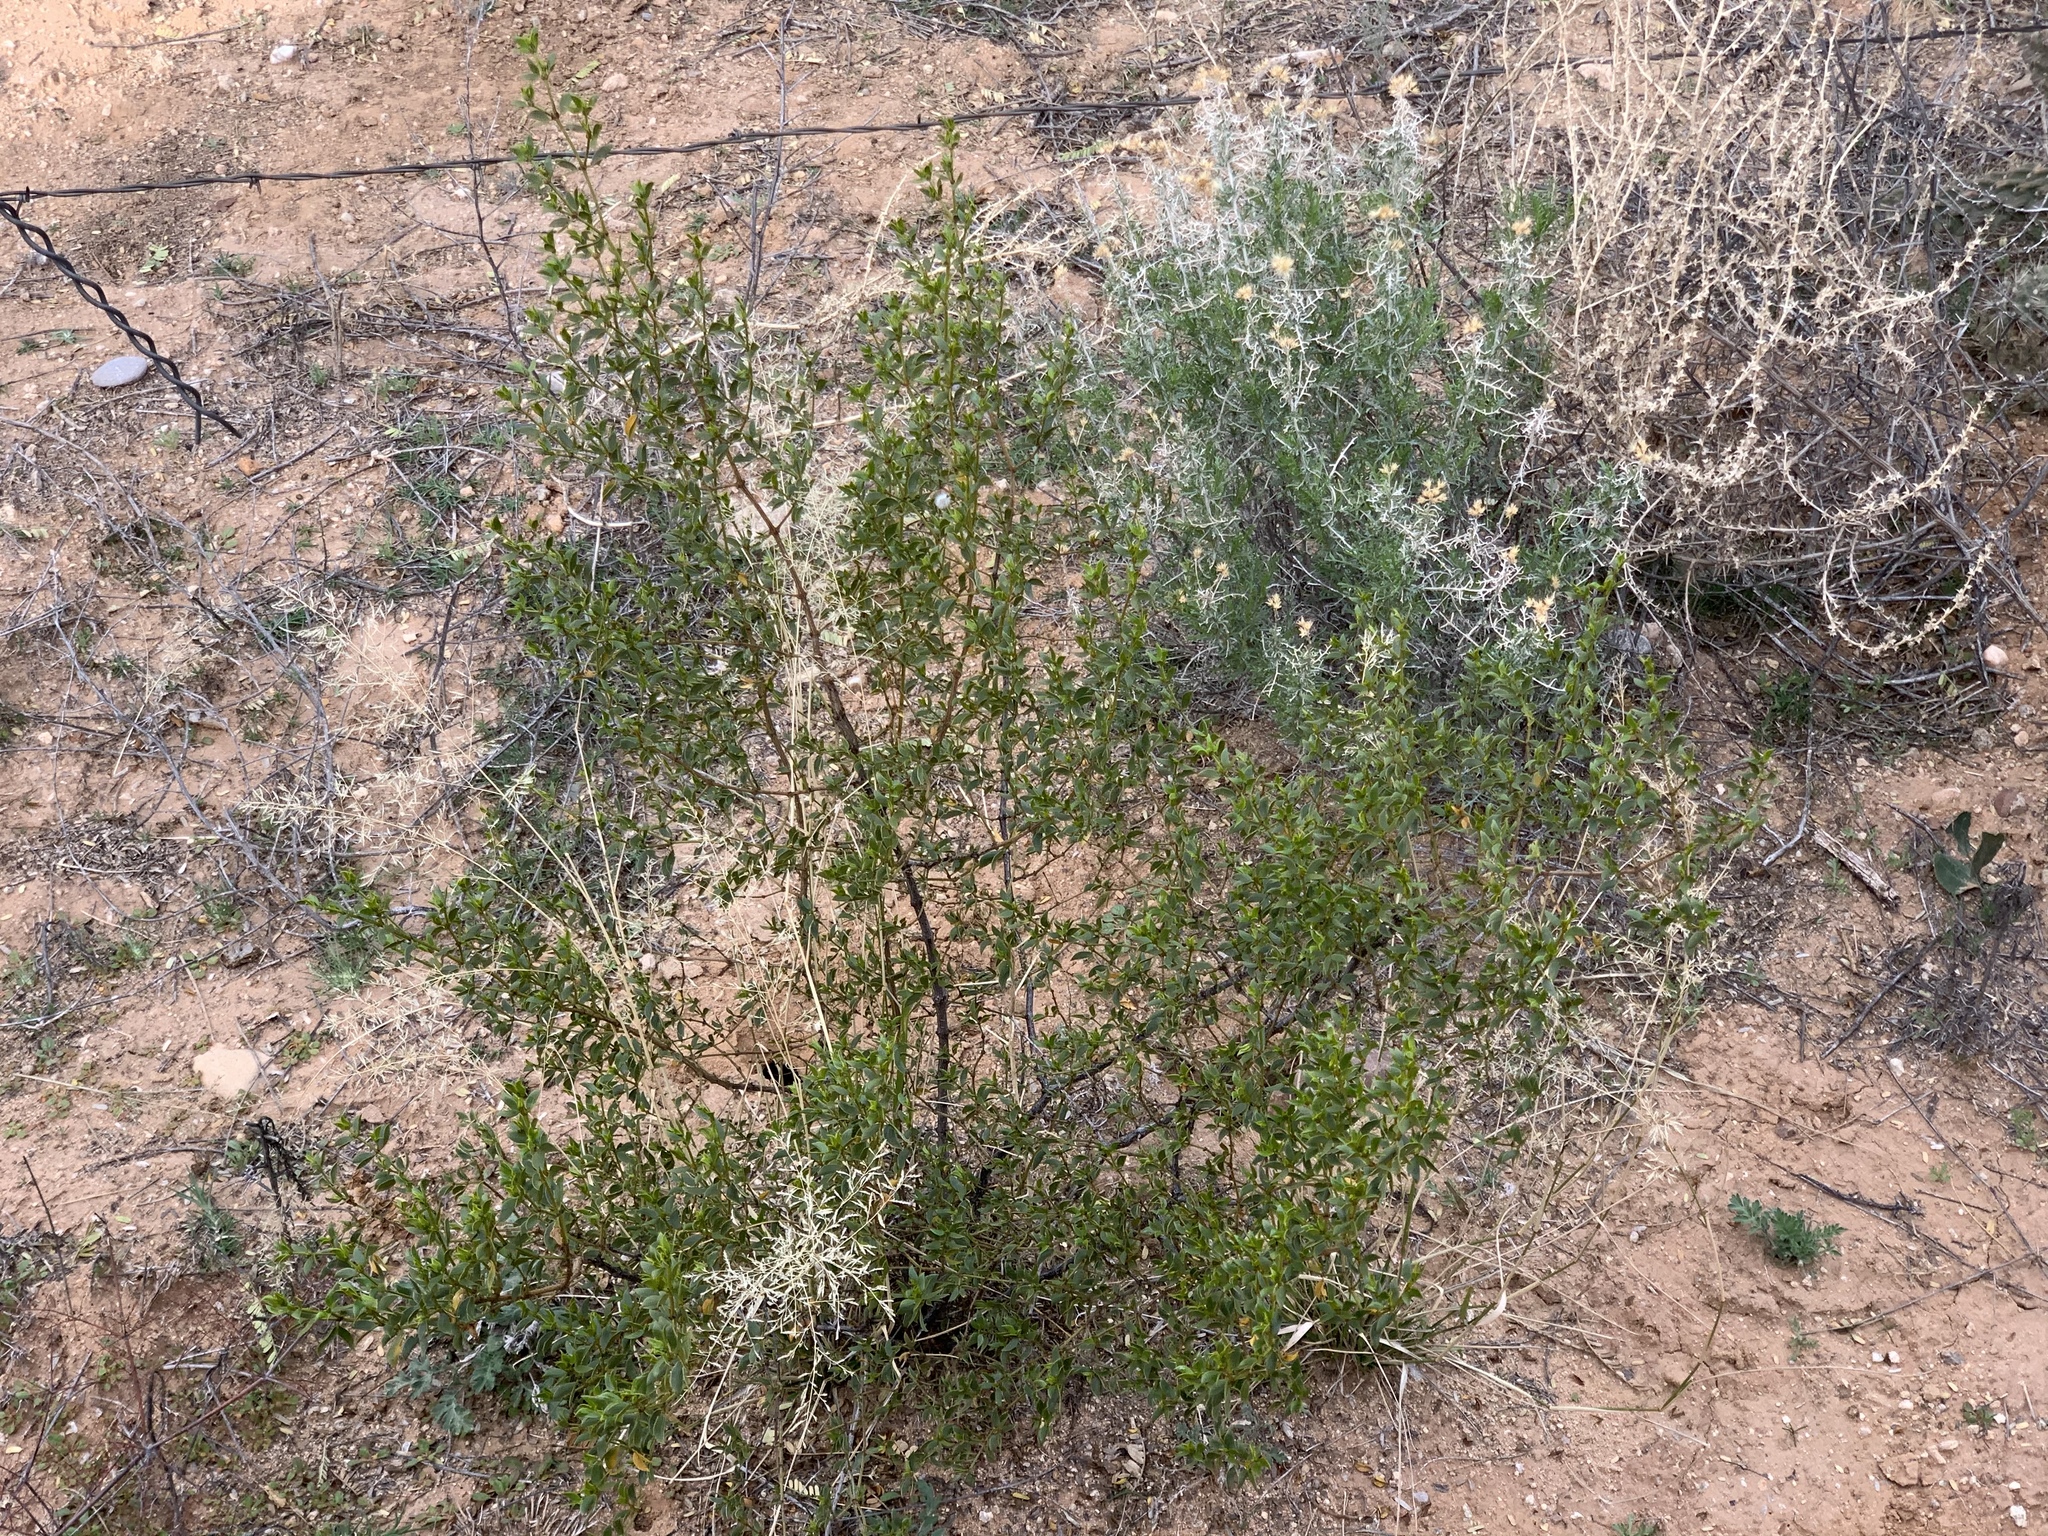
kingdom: Plantae
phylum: Tracheophyta
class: Magnoliopsida
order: Zygophyllales
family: Zygophyllaceae
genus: Larrea
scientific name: Larrea tridentata
